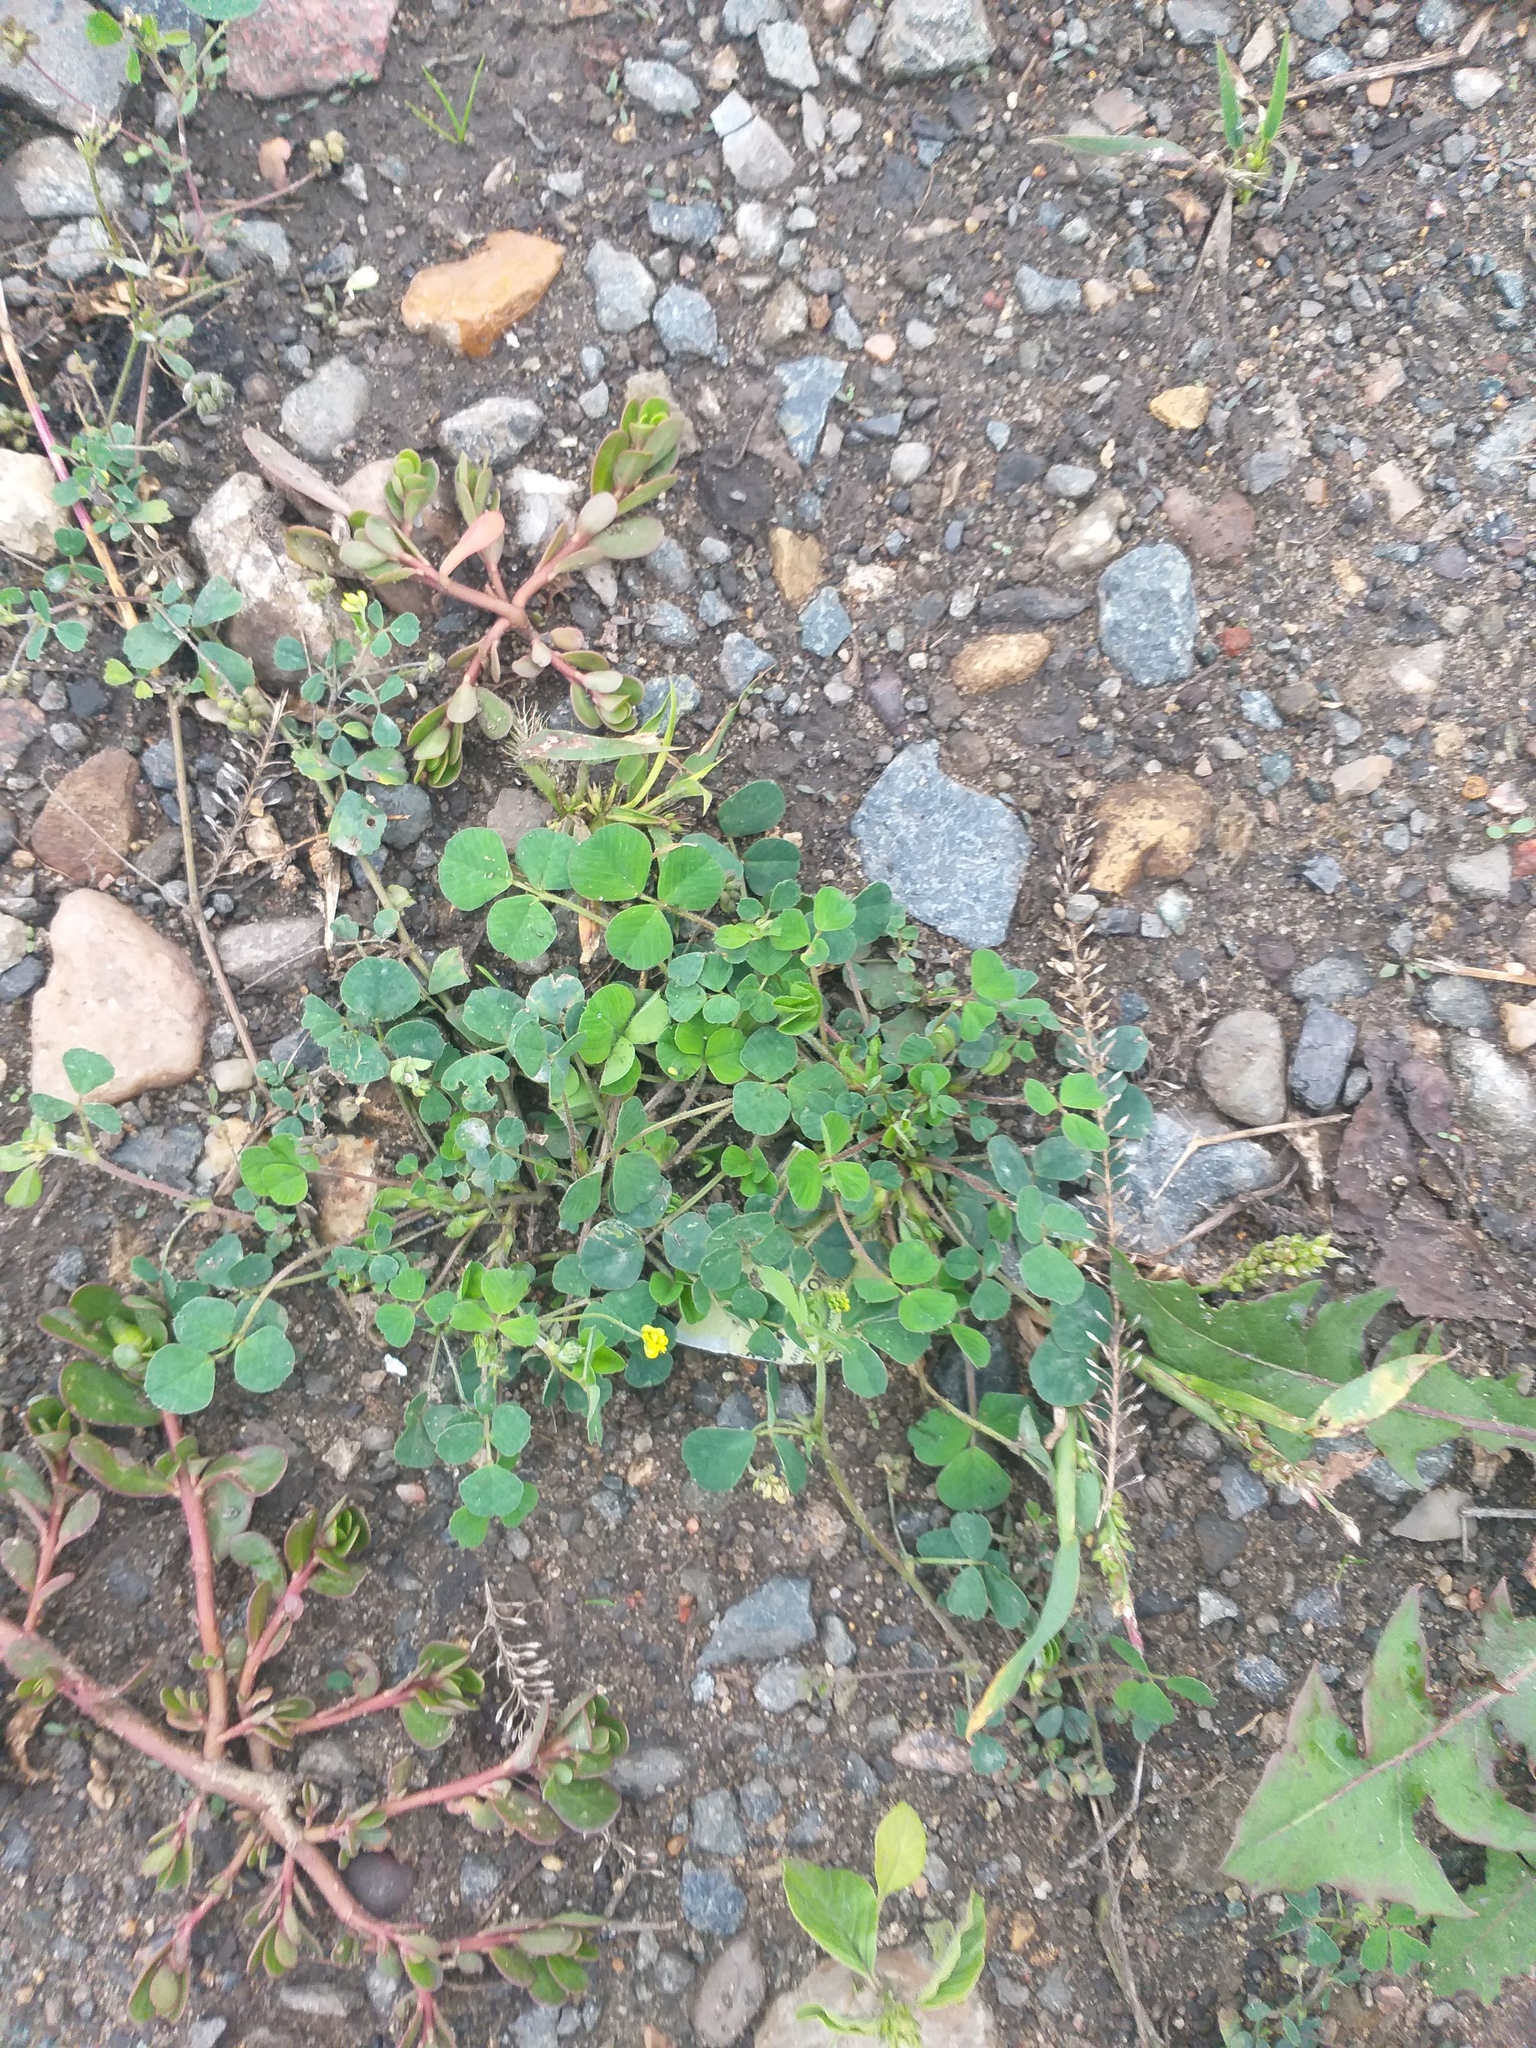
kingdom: Plantae
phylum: Tracheophyta
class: Magnoliopsida
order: Fabales
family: Fabaceae
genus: Medicago
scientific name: Medicago lupulina
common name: Black medick
